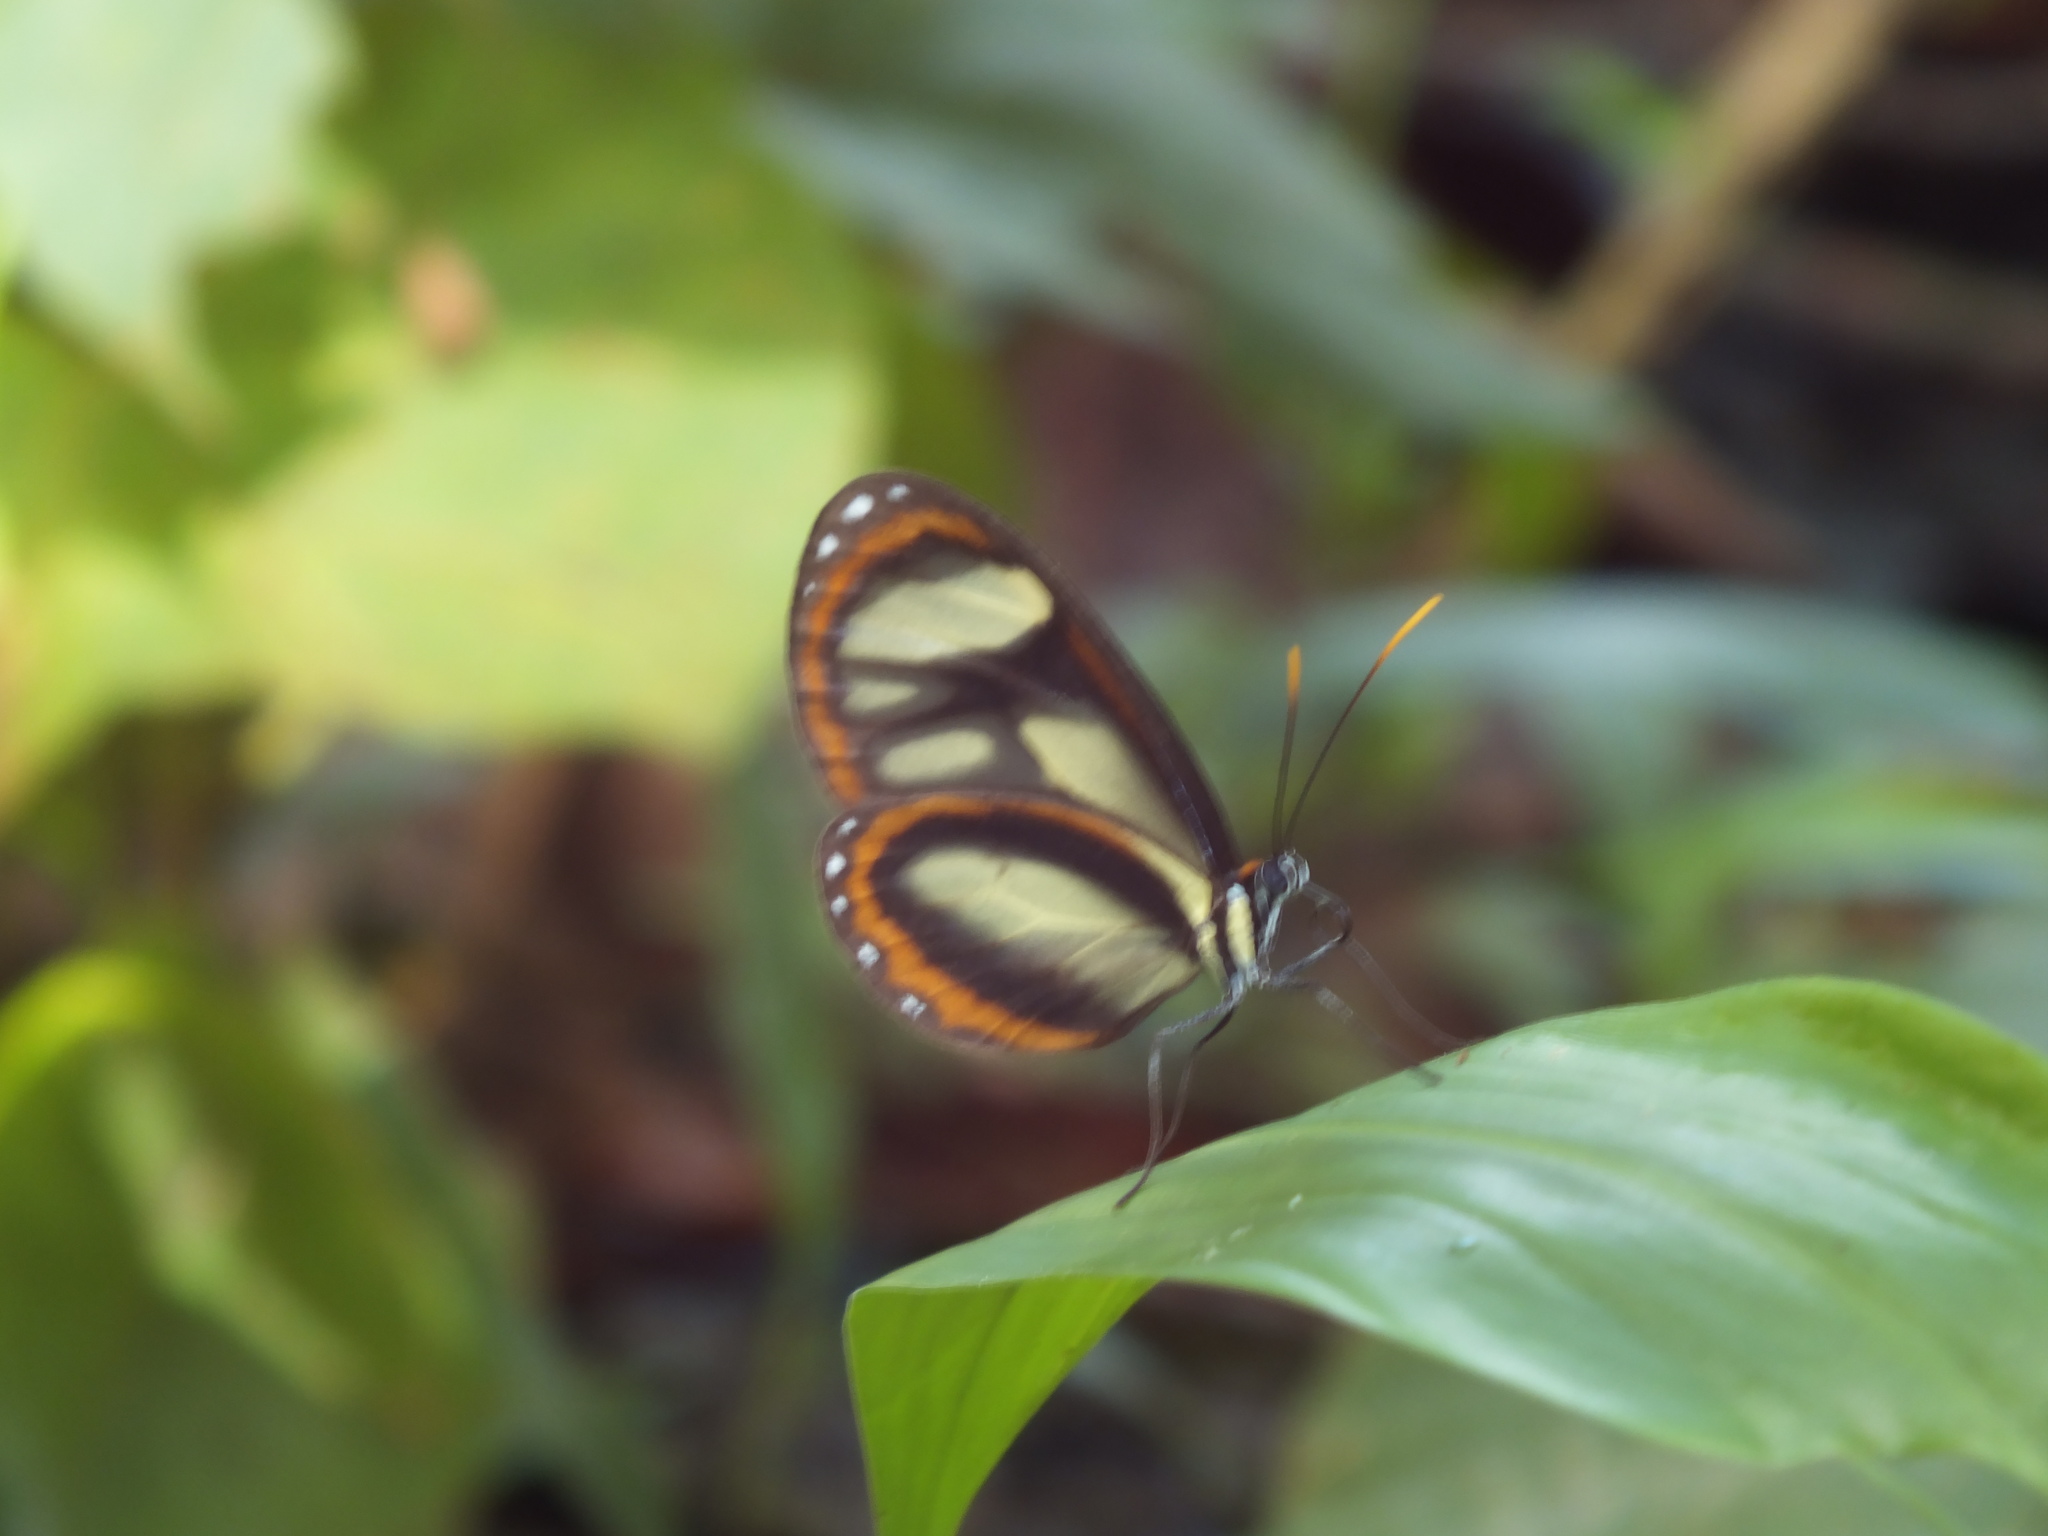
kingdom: Animalia
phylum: Arthropoda
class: Insecta
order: Lepidoptera
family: Nymphalidae
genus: Ithomia
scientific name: Ithomia salapia
